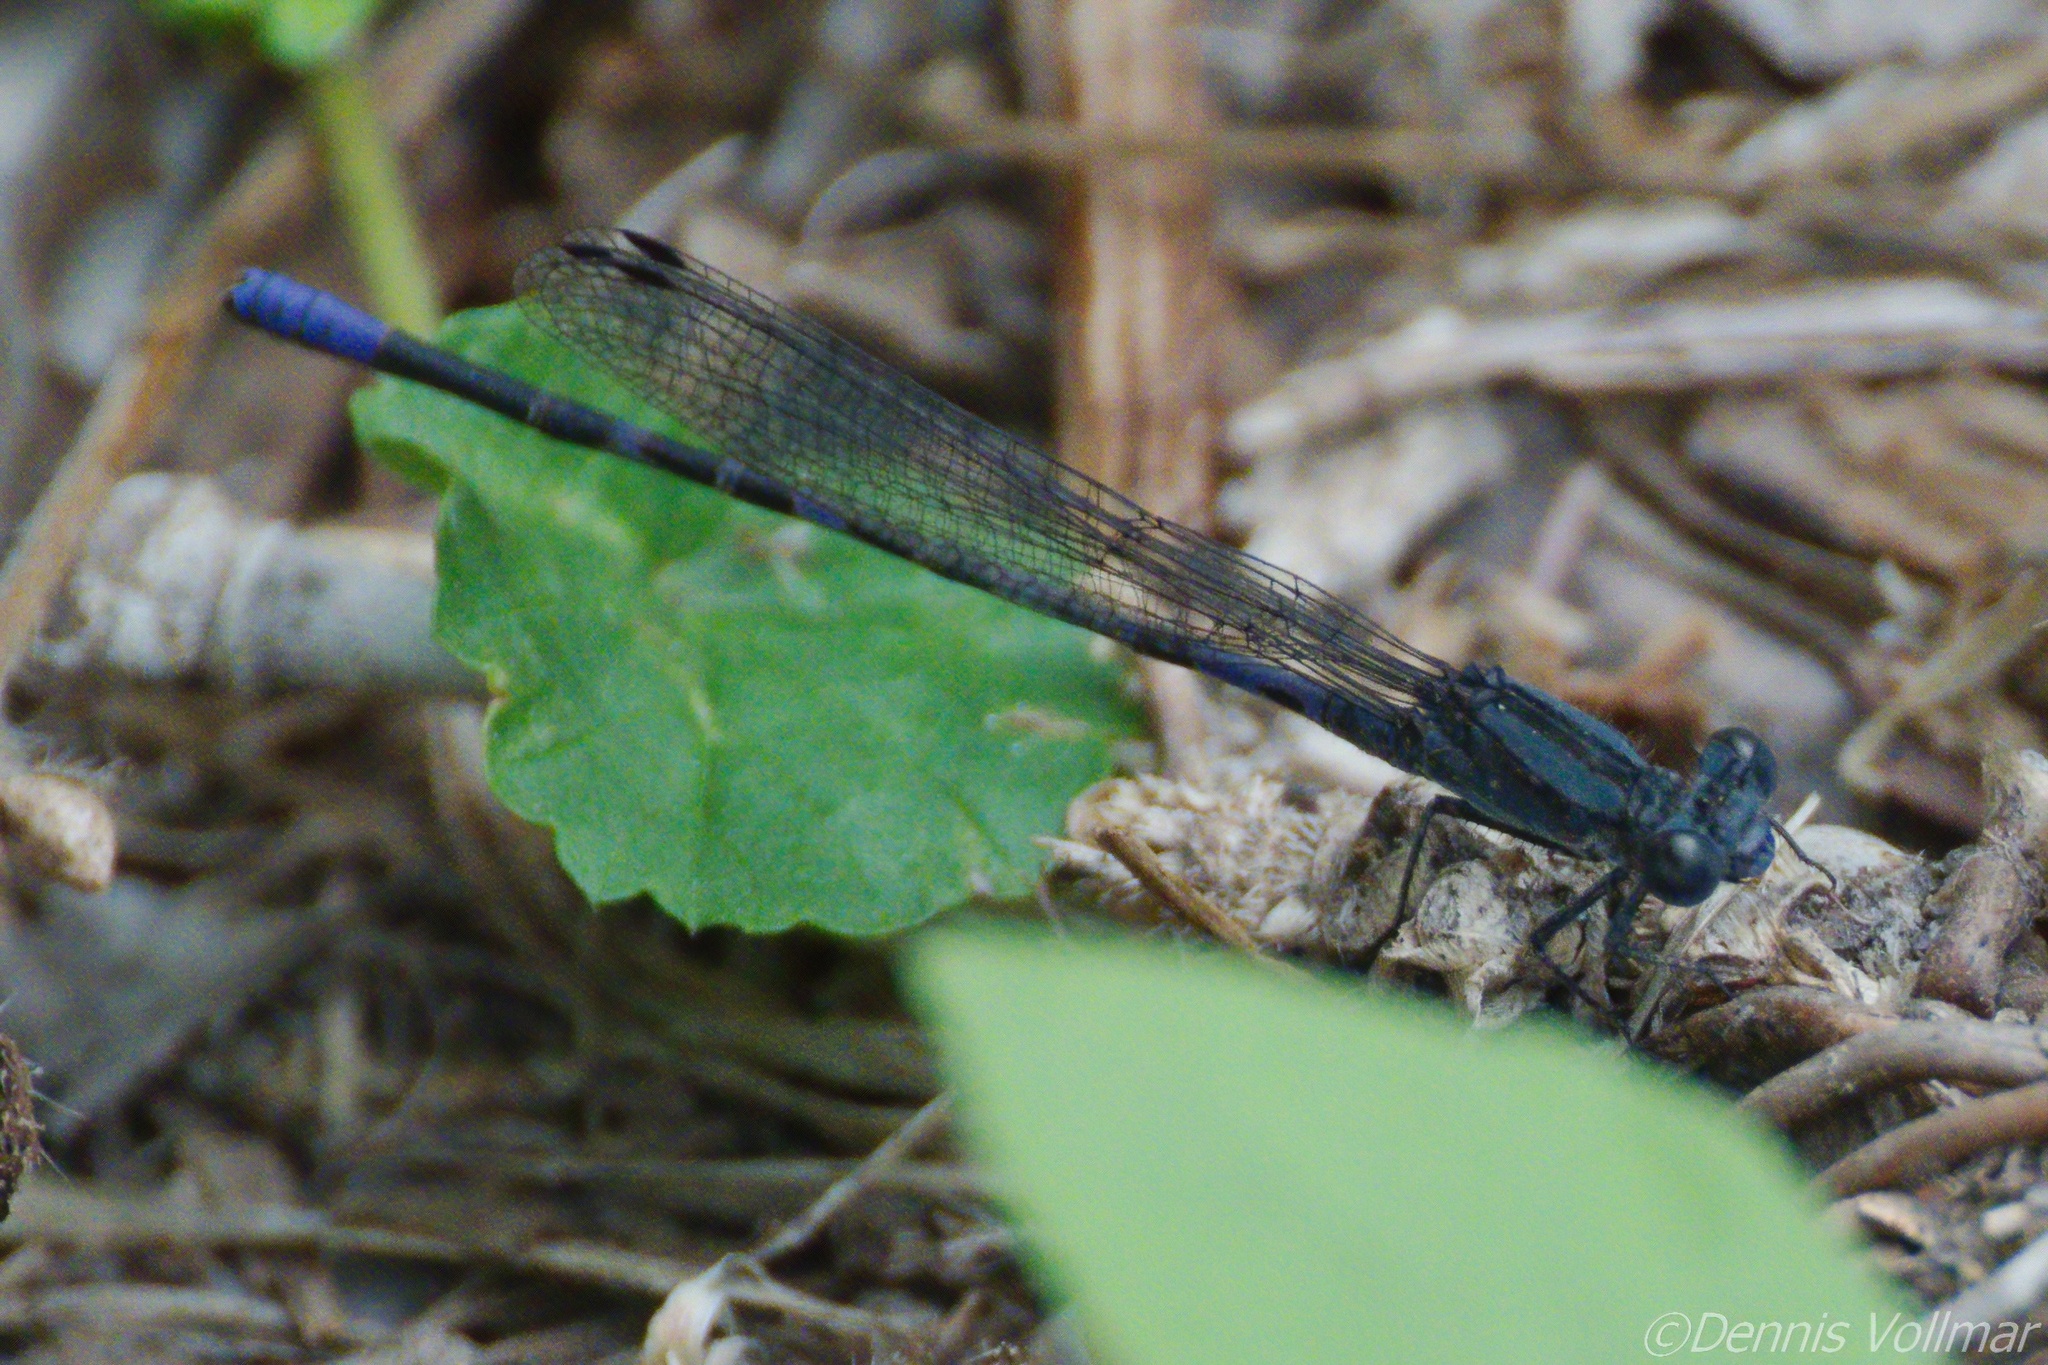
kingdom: Animalia
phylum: Arthropoda
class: Insecta
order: Odonata
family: Coenagrionidae
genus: Argia
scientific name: Argia immunda
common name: Kiowa dancer
